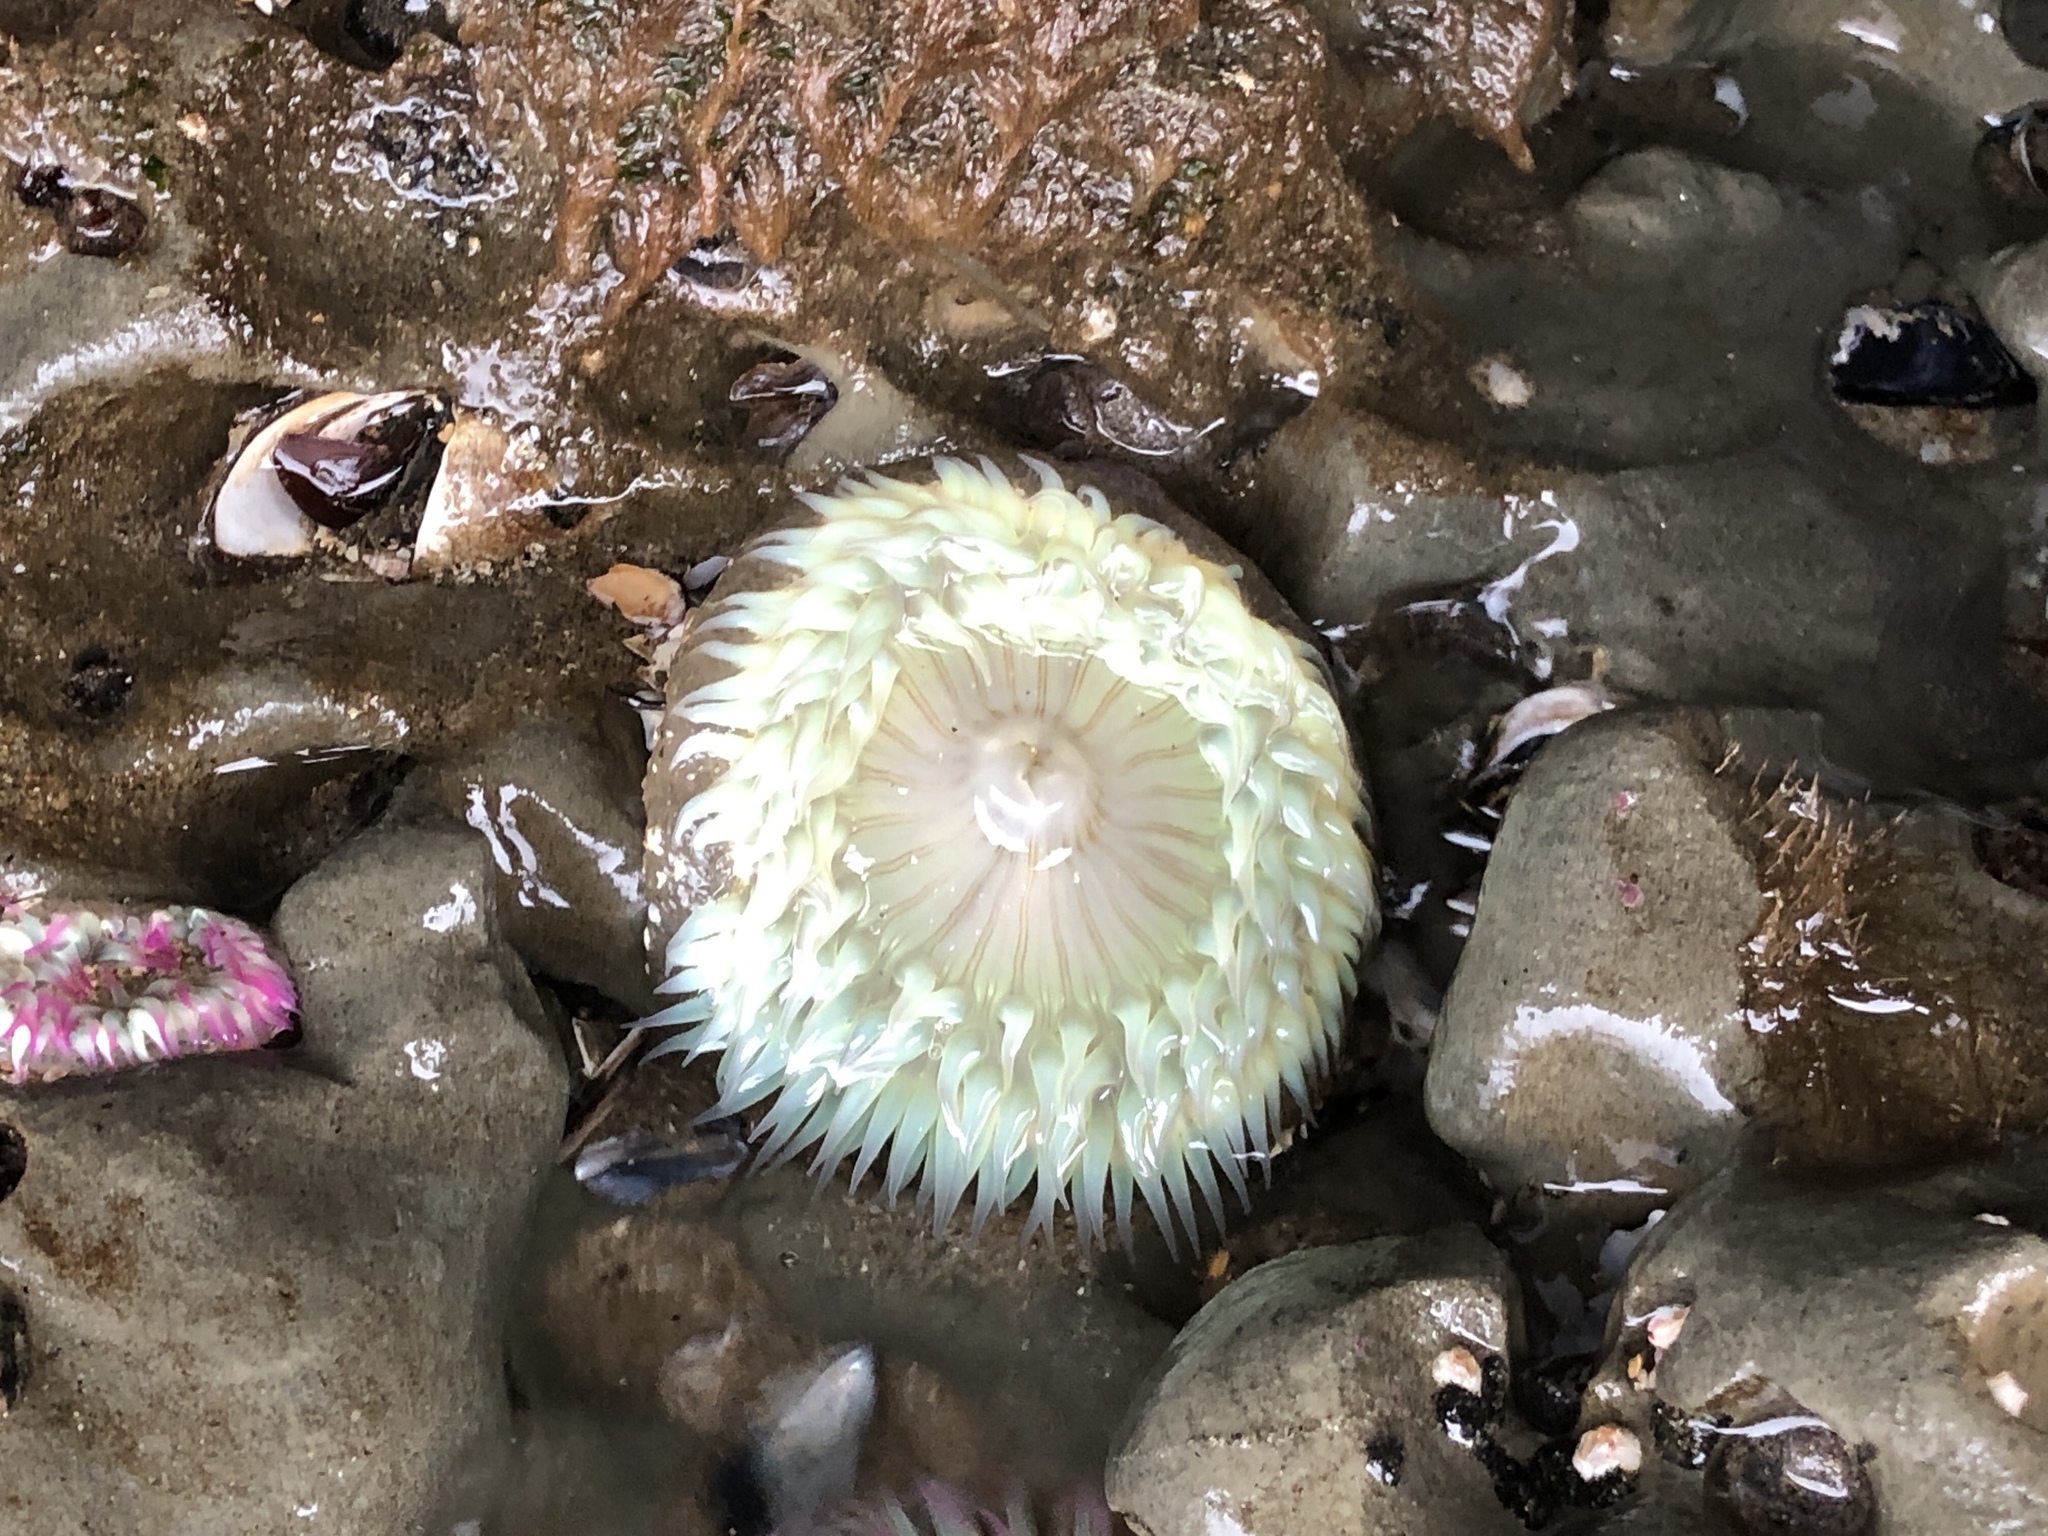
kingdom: Animalia
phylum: Cnidaria
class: Anthozoa
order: Actiniaria
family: Actiniidae
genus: Anthopleura
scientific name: Anthopleura sola
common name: Sun anemone
